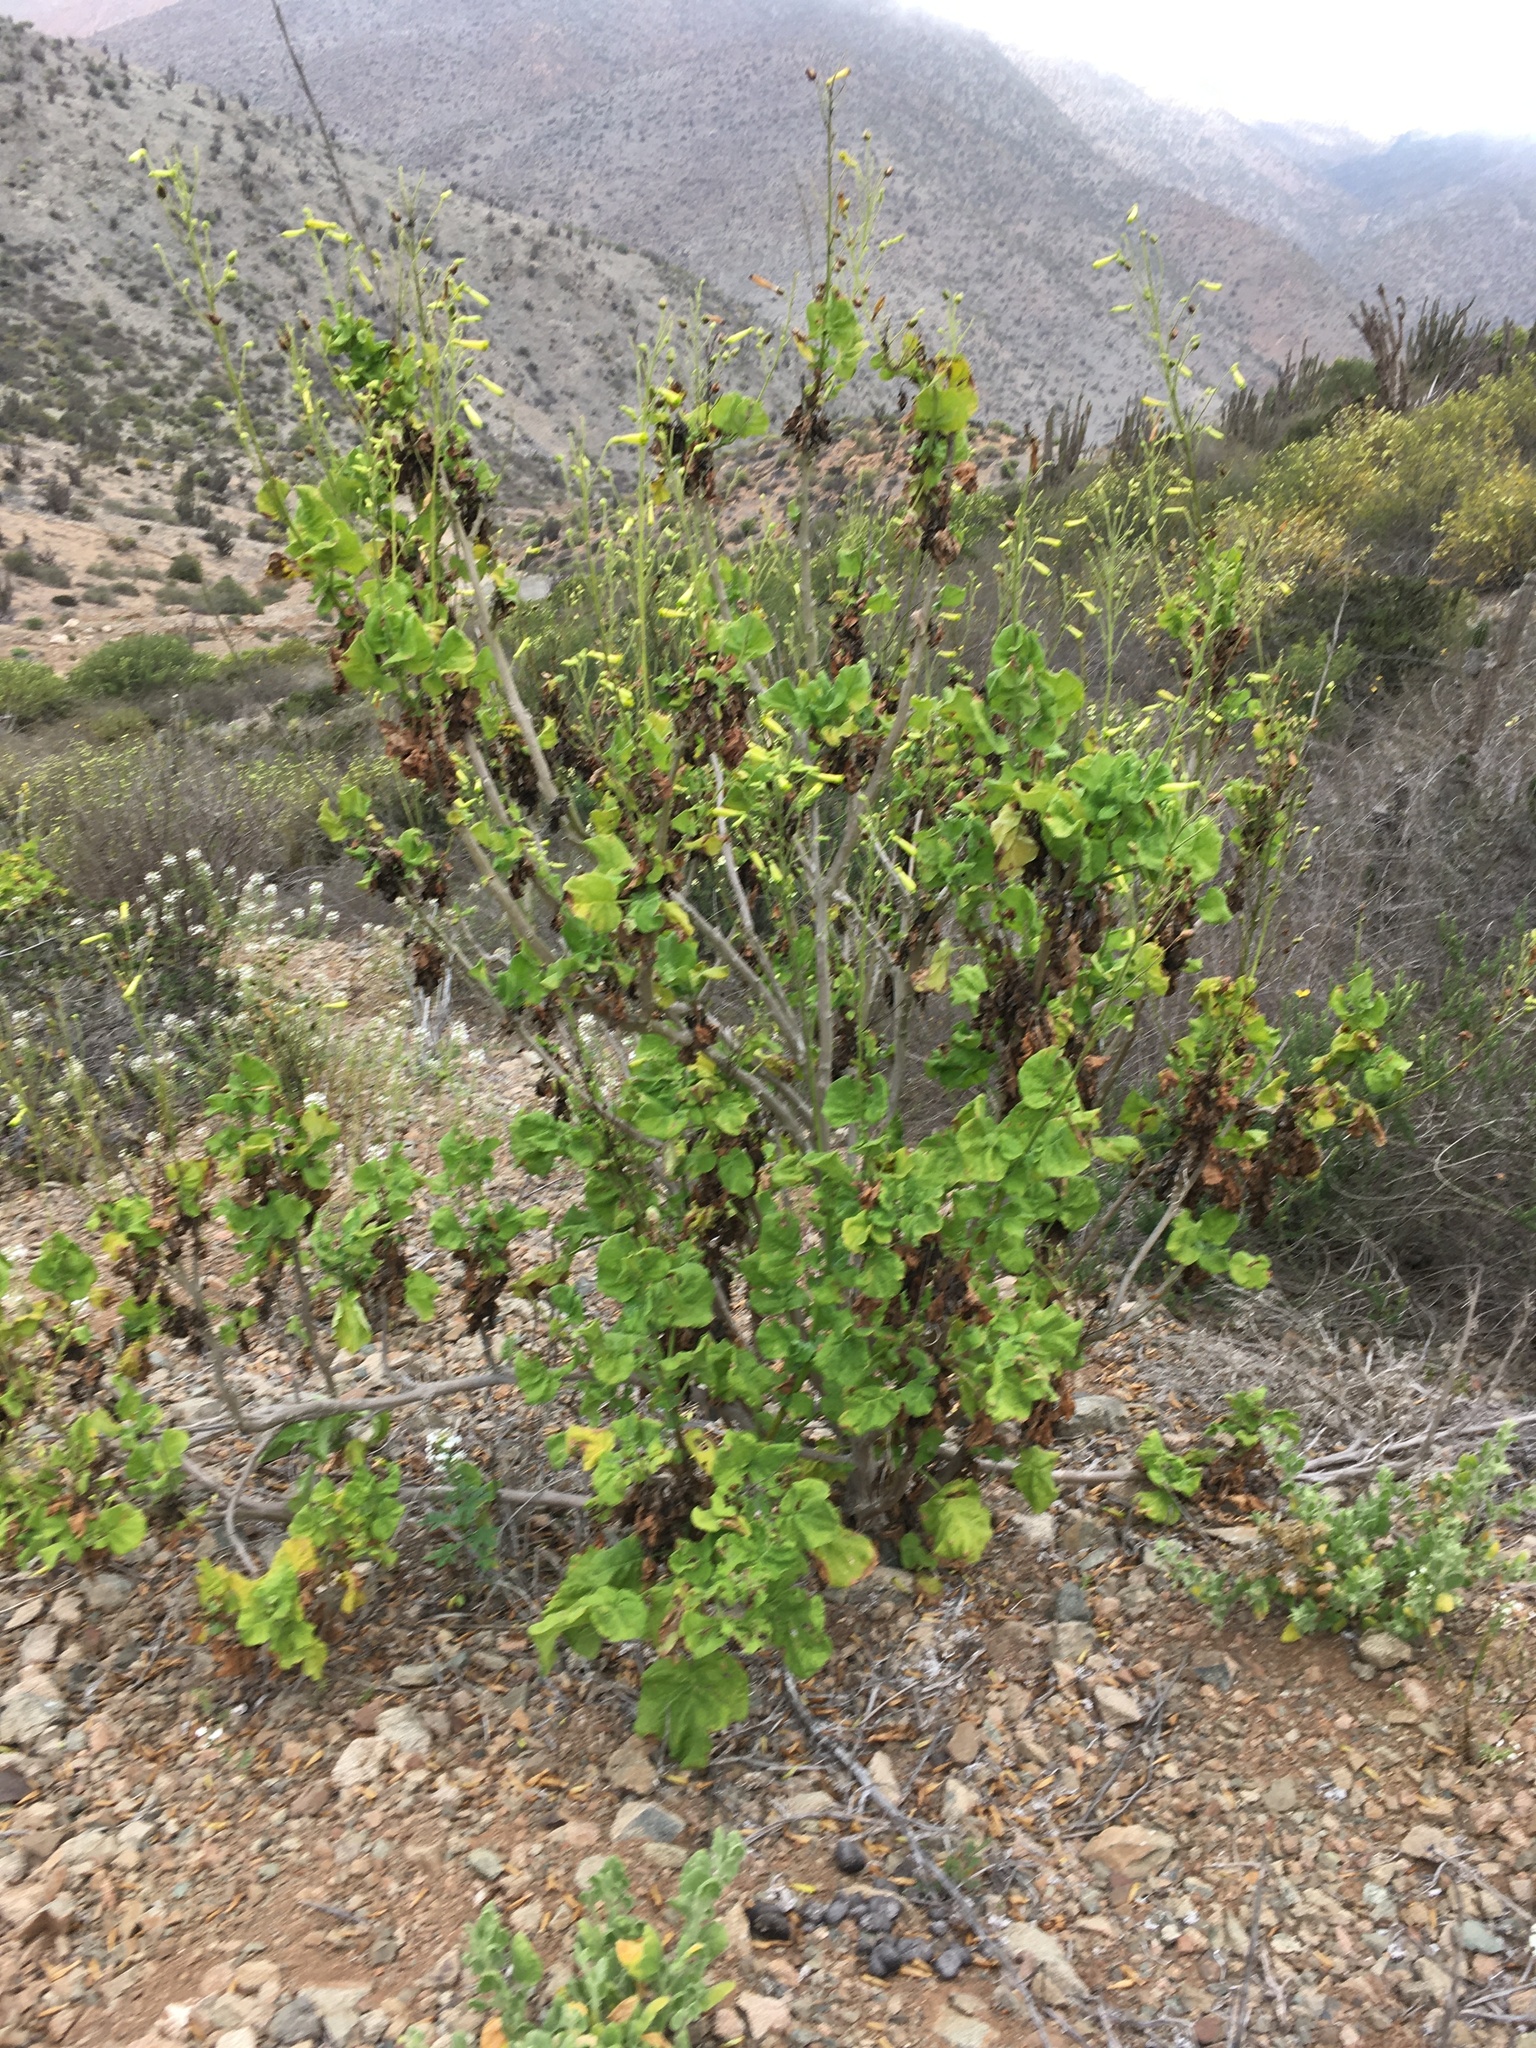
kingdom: Plantae
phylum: Tracheophyta
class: Magnoliopsida
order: Solanales
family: Solanaceae
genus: Nicotiana
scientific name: Nicotiana solanifolia
